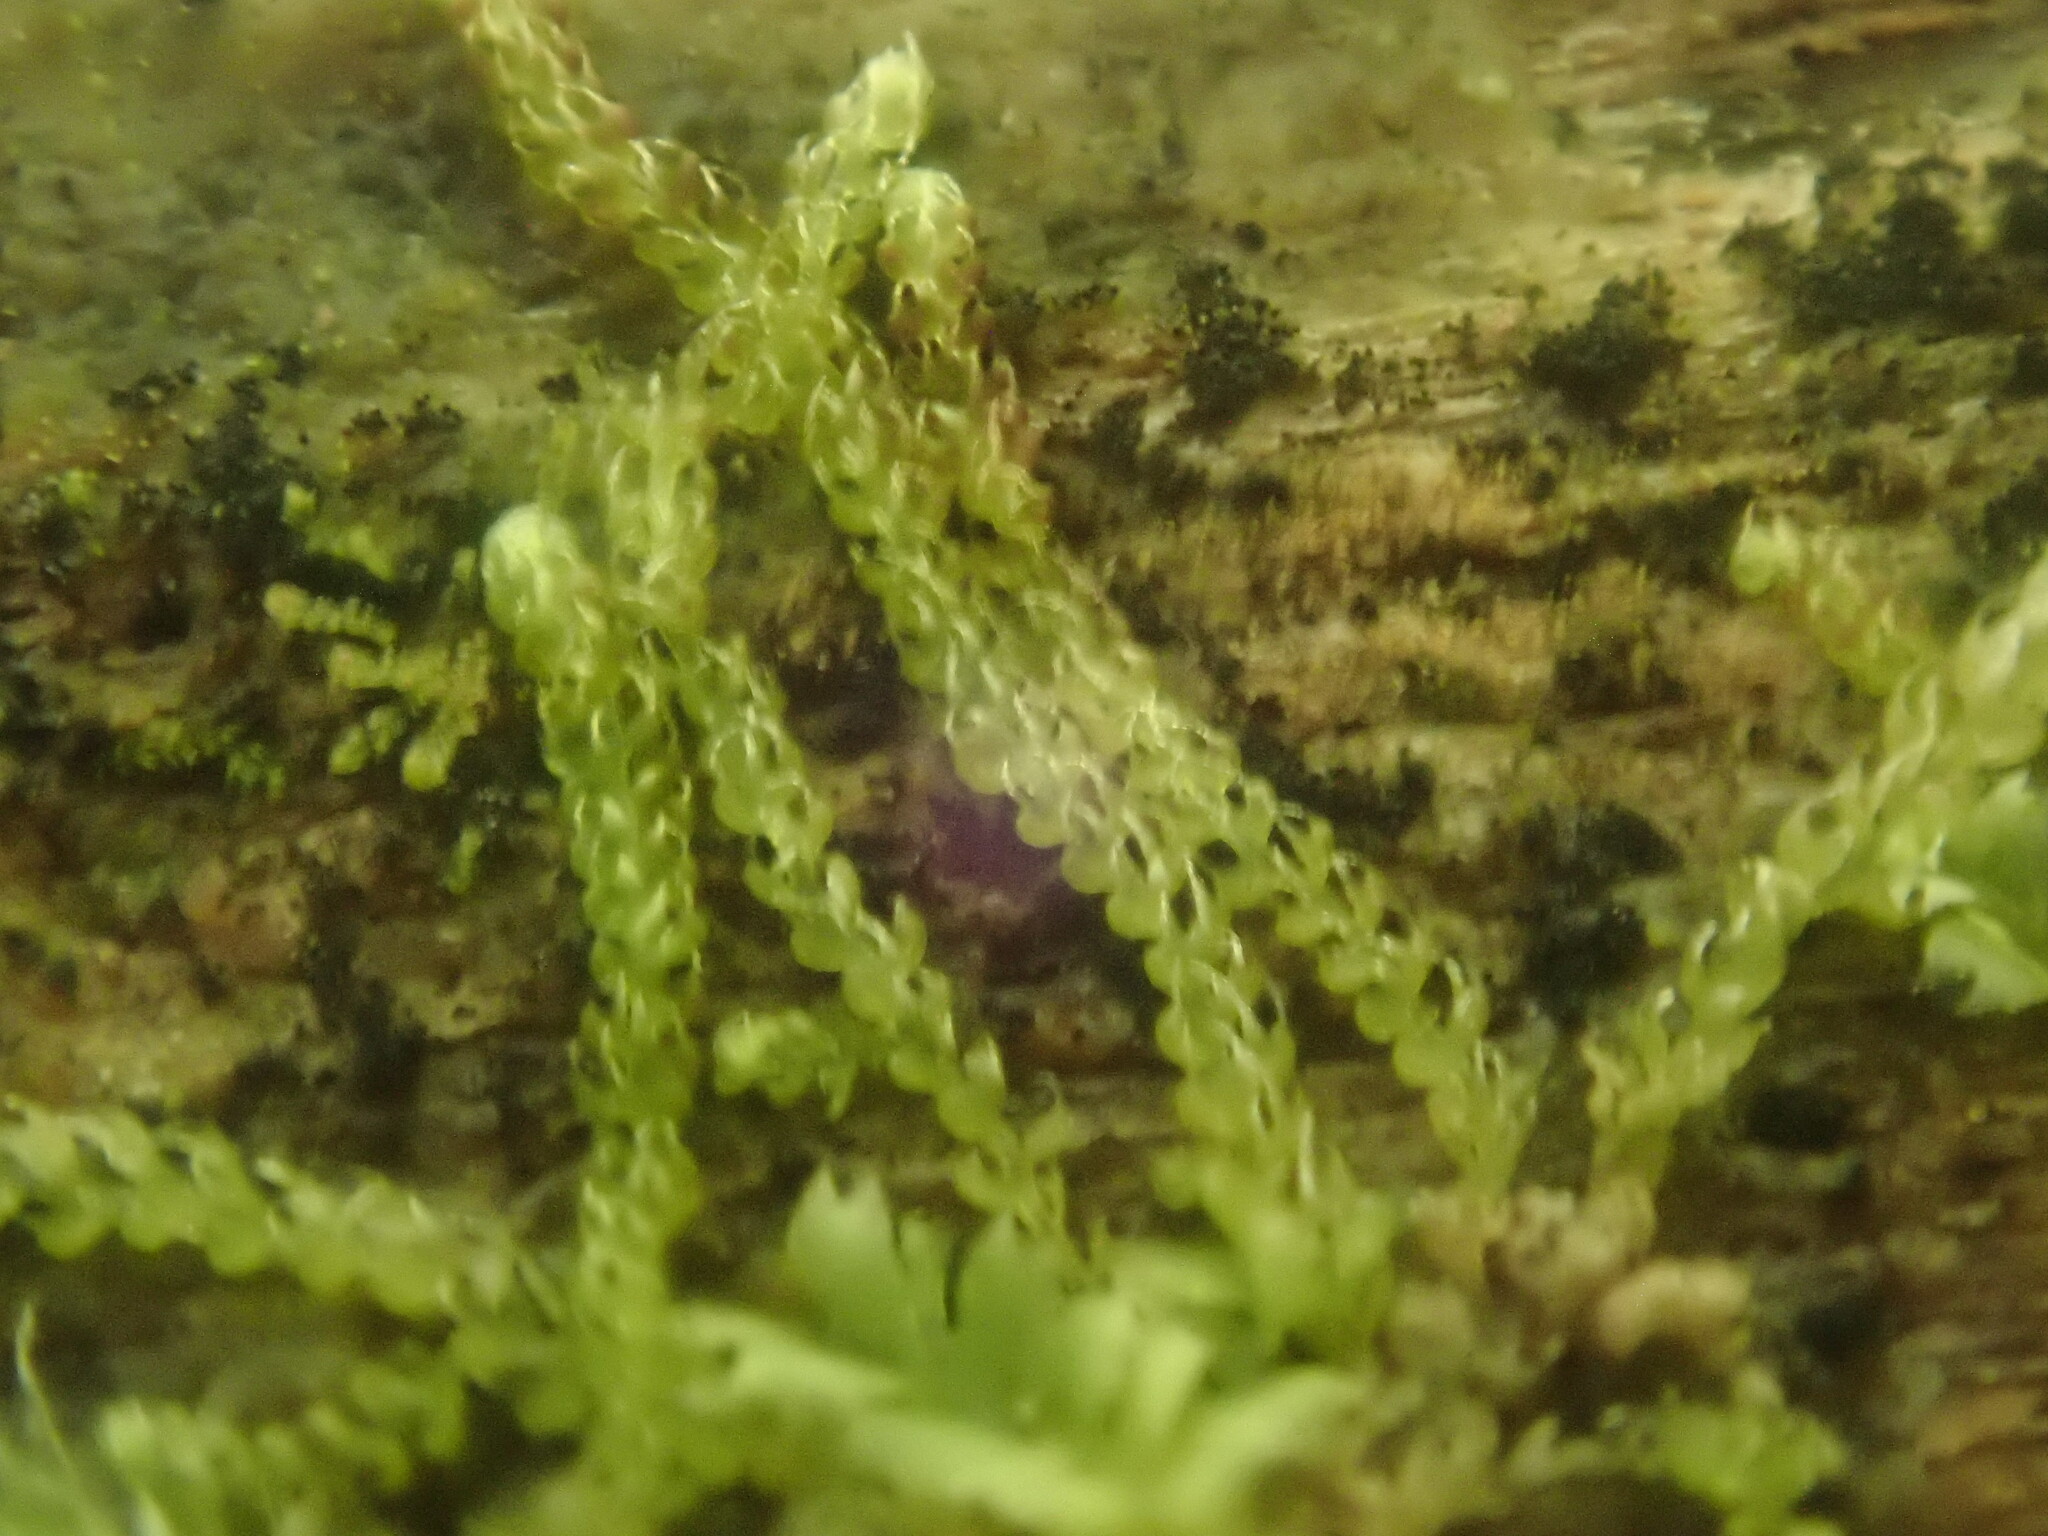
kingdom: Plantae
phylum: Marchantiophyta
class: Jungermanniopsida
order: Jungermanniales
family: Cephaloziaceae
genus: Nowellia
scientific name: Nowellia curvifolia
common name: Wood rustwort
